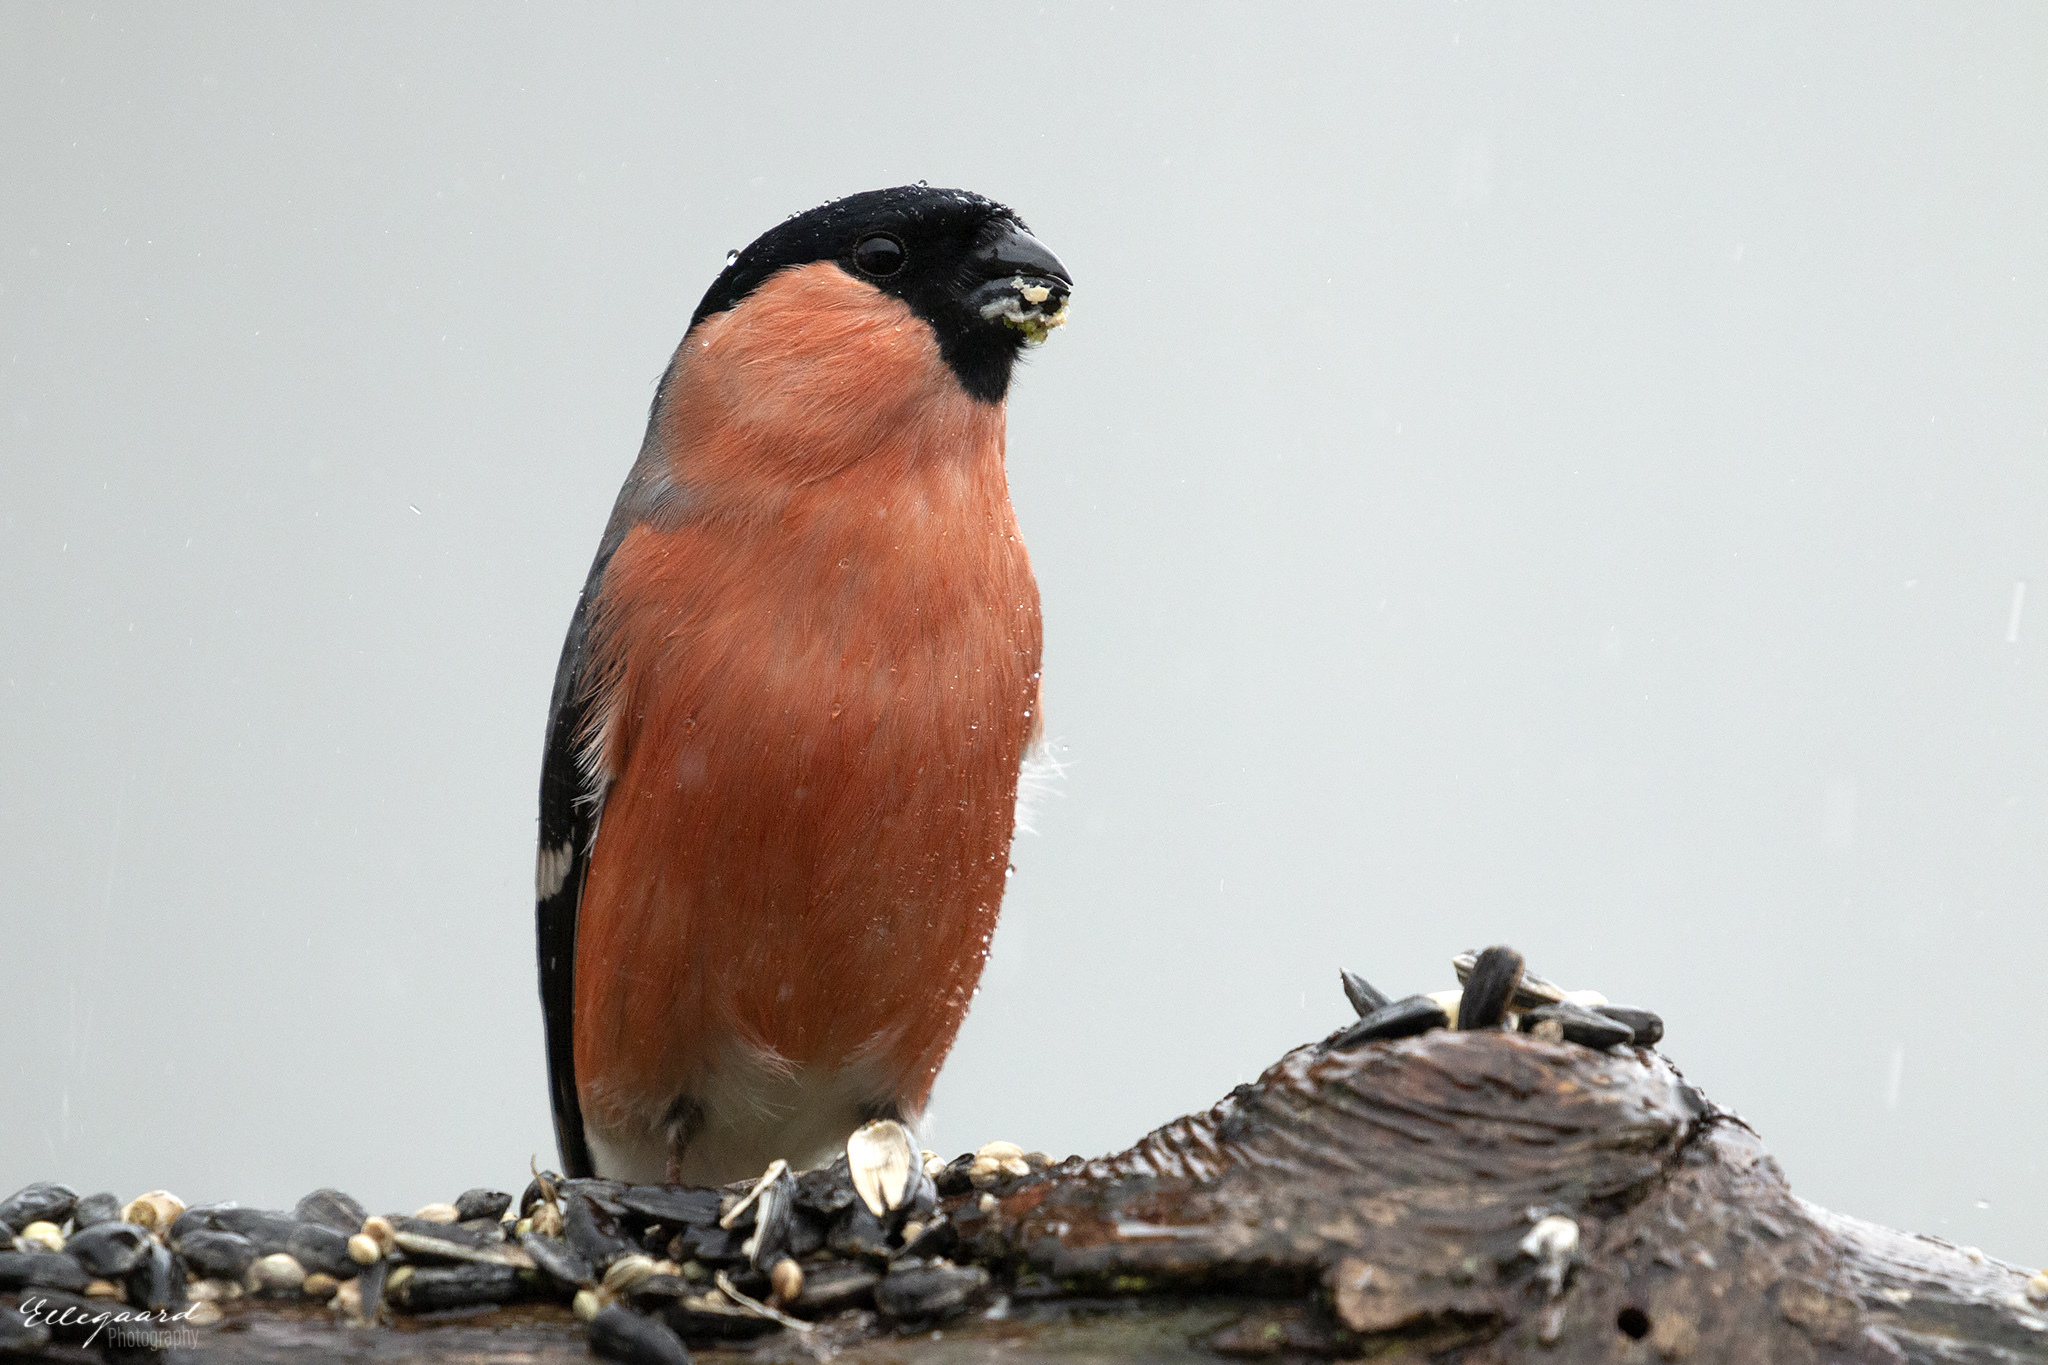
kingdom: Animalia
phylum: Chordata
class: Aves
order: Passeriformes
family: Fringillidae
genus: Pyrrhula
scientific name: Pyrrhula pyrrhula
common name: Eurasian bullfinch
